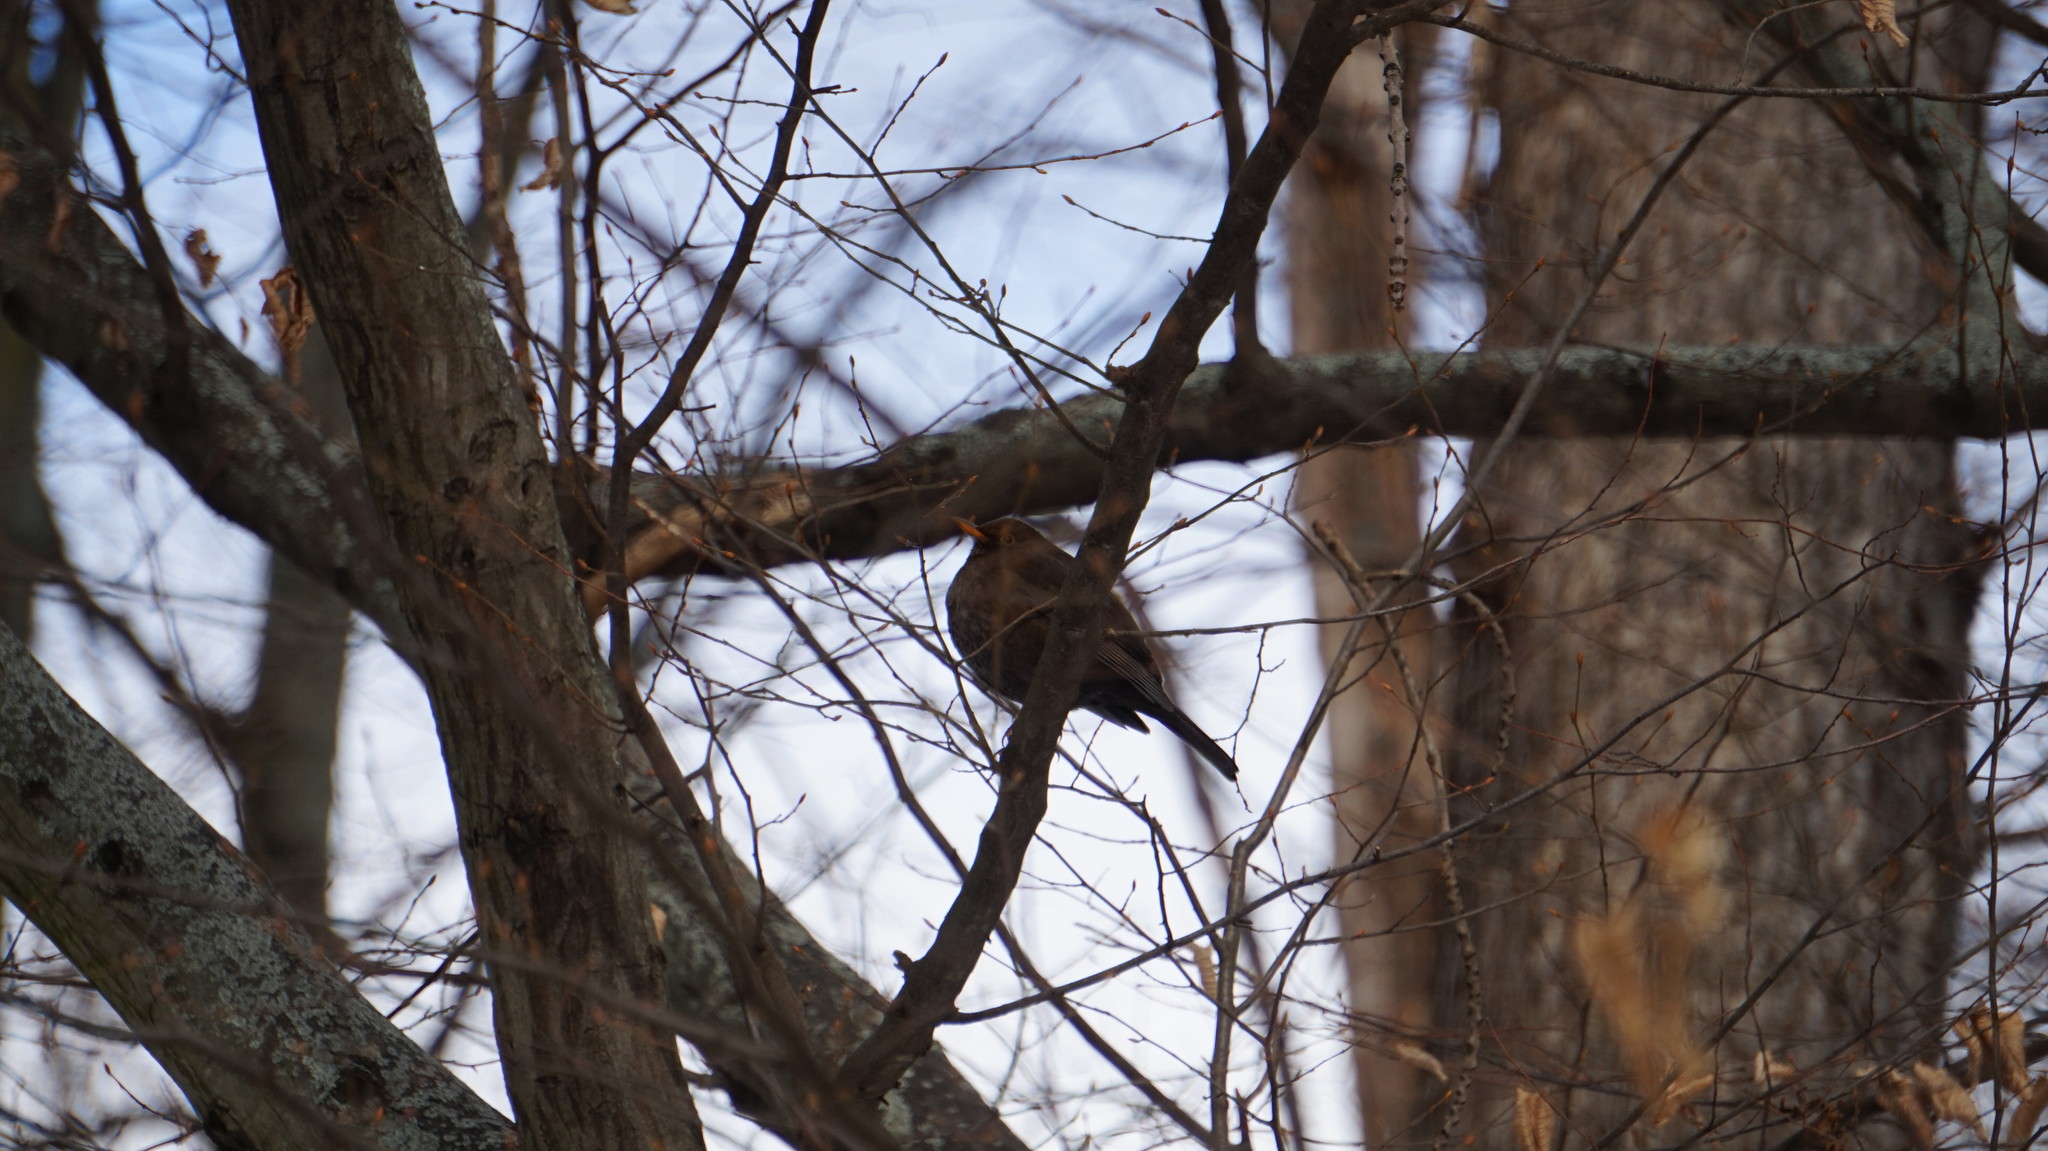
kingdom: Animalia
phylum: Chordata
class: Aves
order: Passeriformes
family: Turdidae
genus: Turdus
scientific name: Turdus merula
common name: Common blackbird
